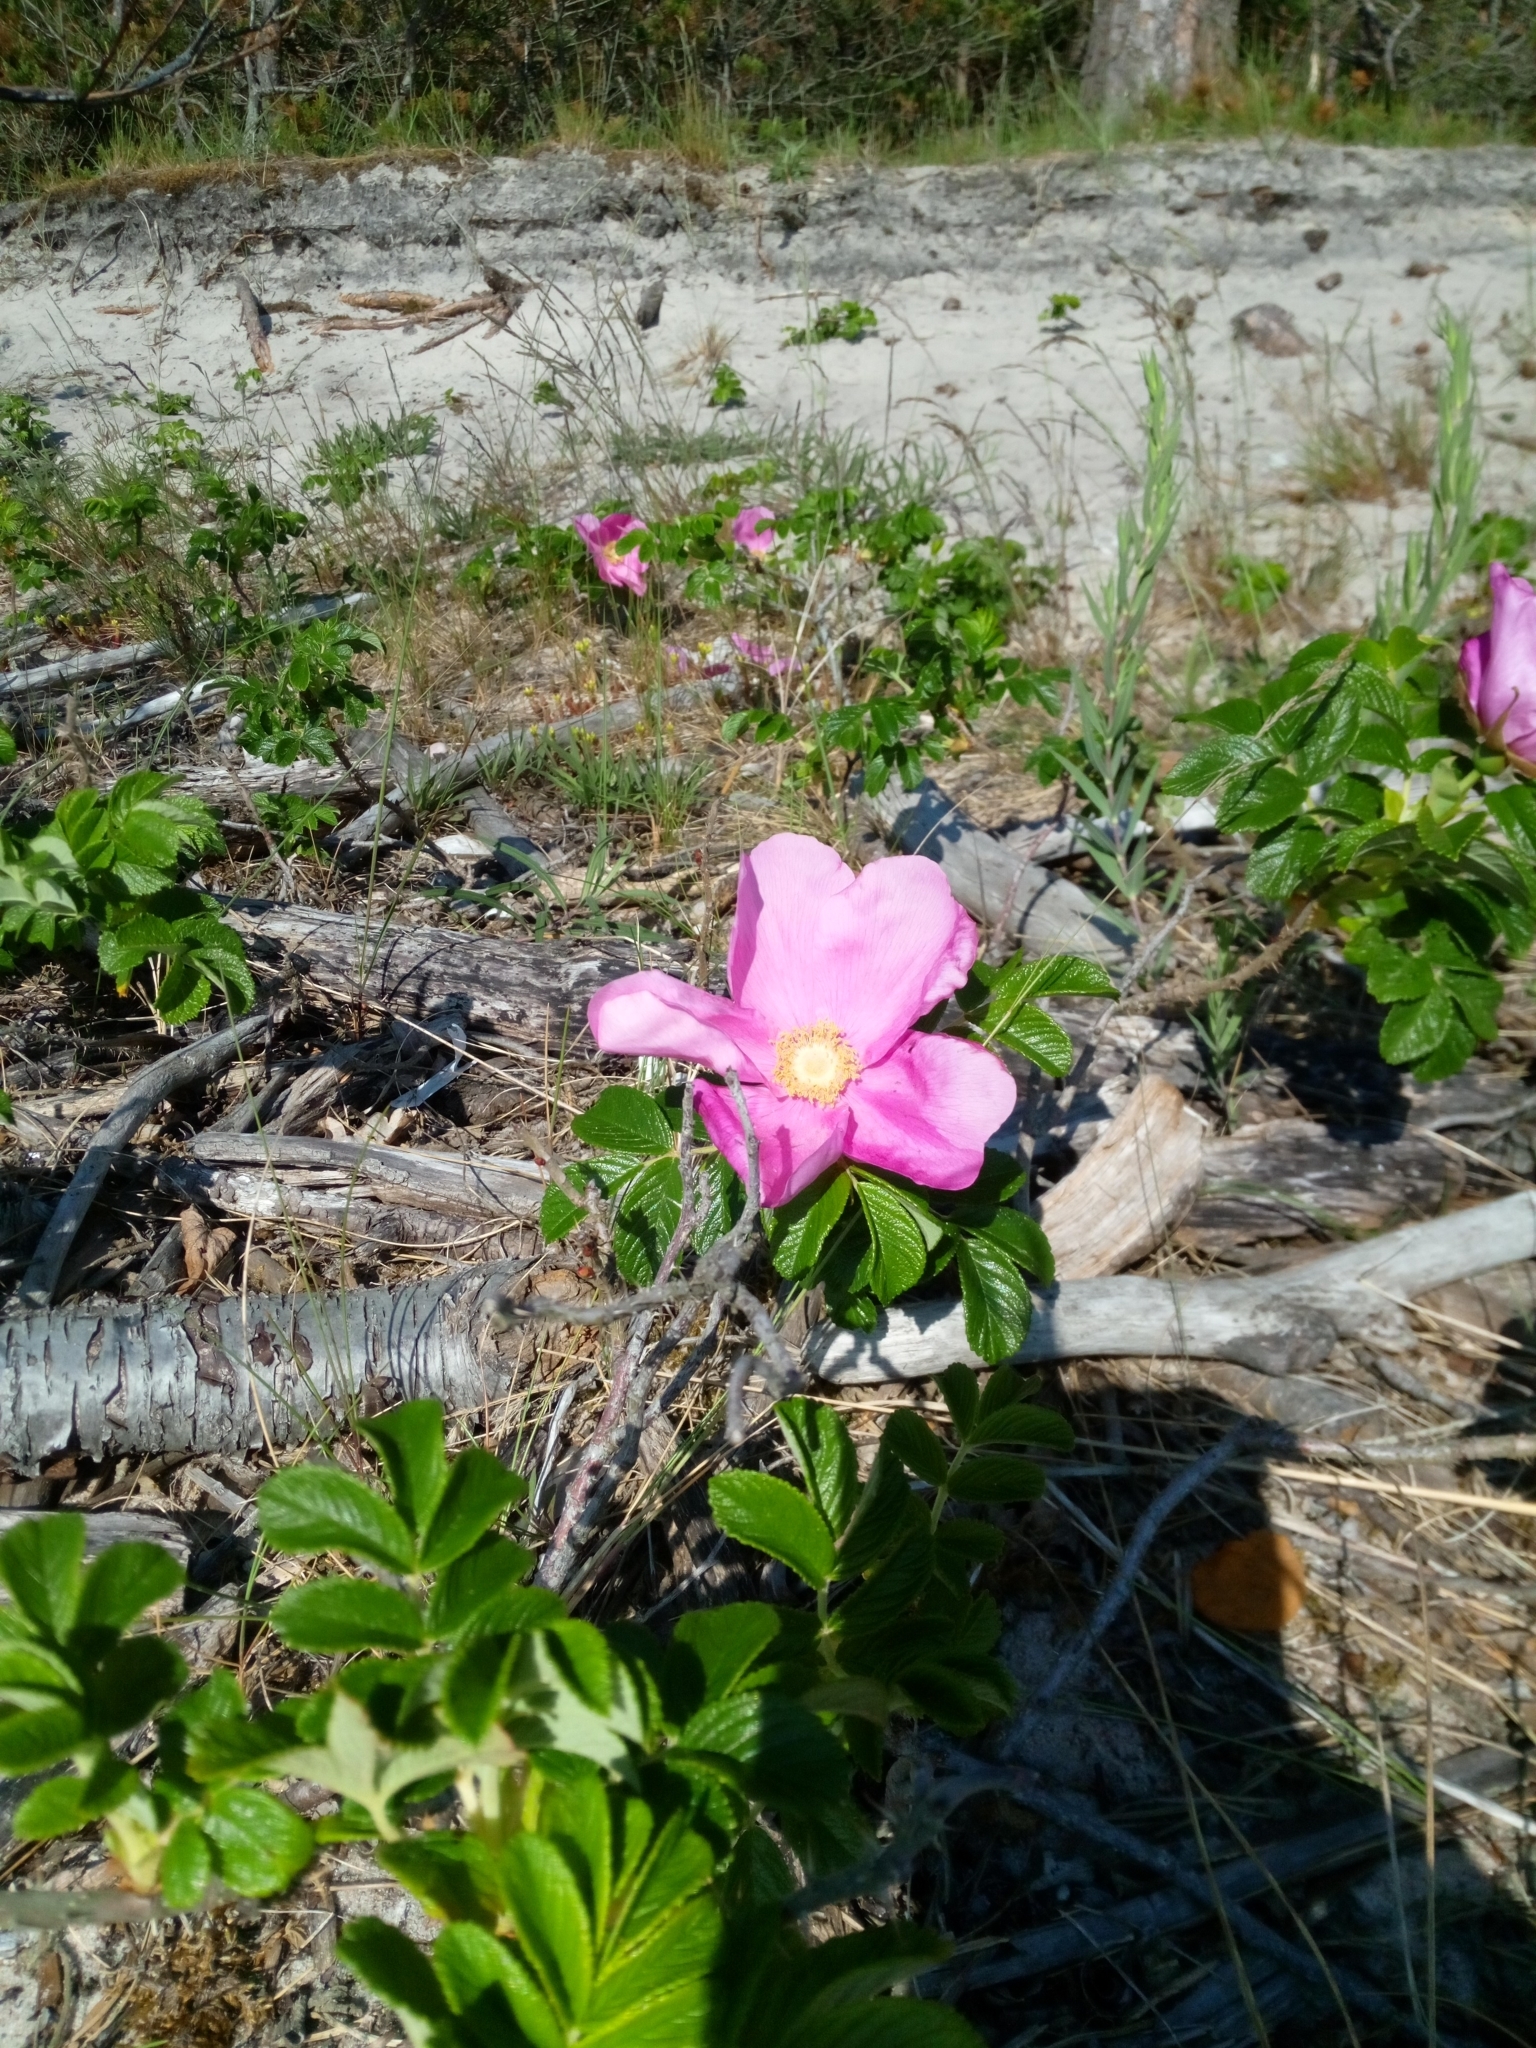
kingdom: Plantae
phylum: Tracheophyta
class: Magnoliopsida
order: Rosales
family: Rosaceae
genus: Rosa
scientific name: Rosa rugosa
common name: Japanese rose
